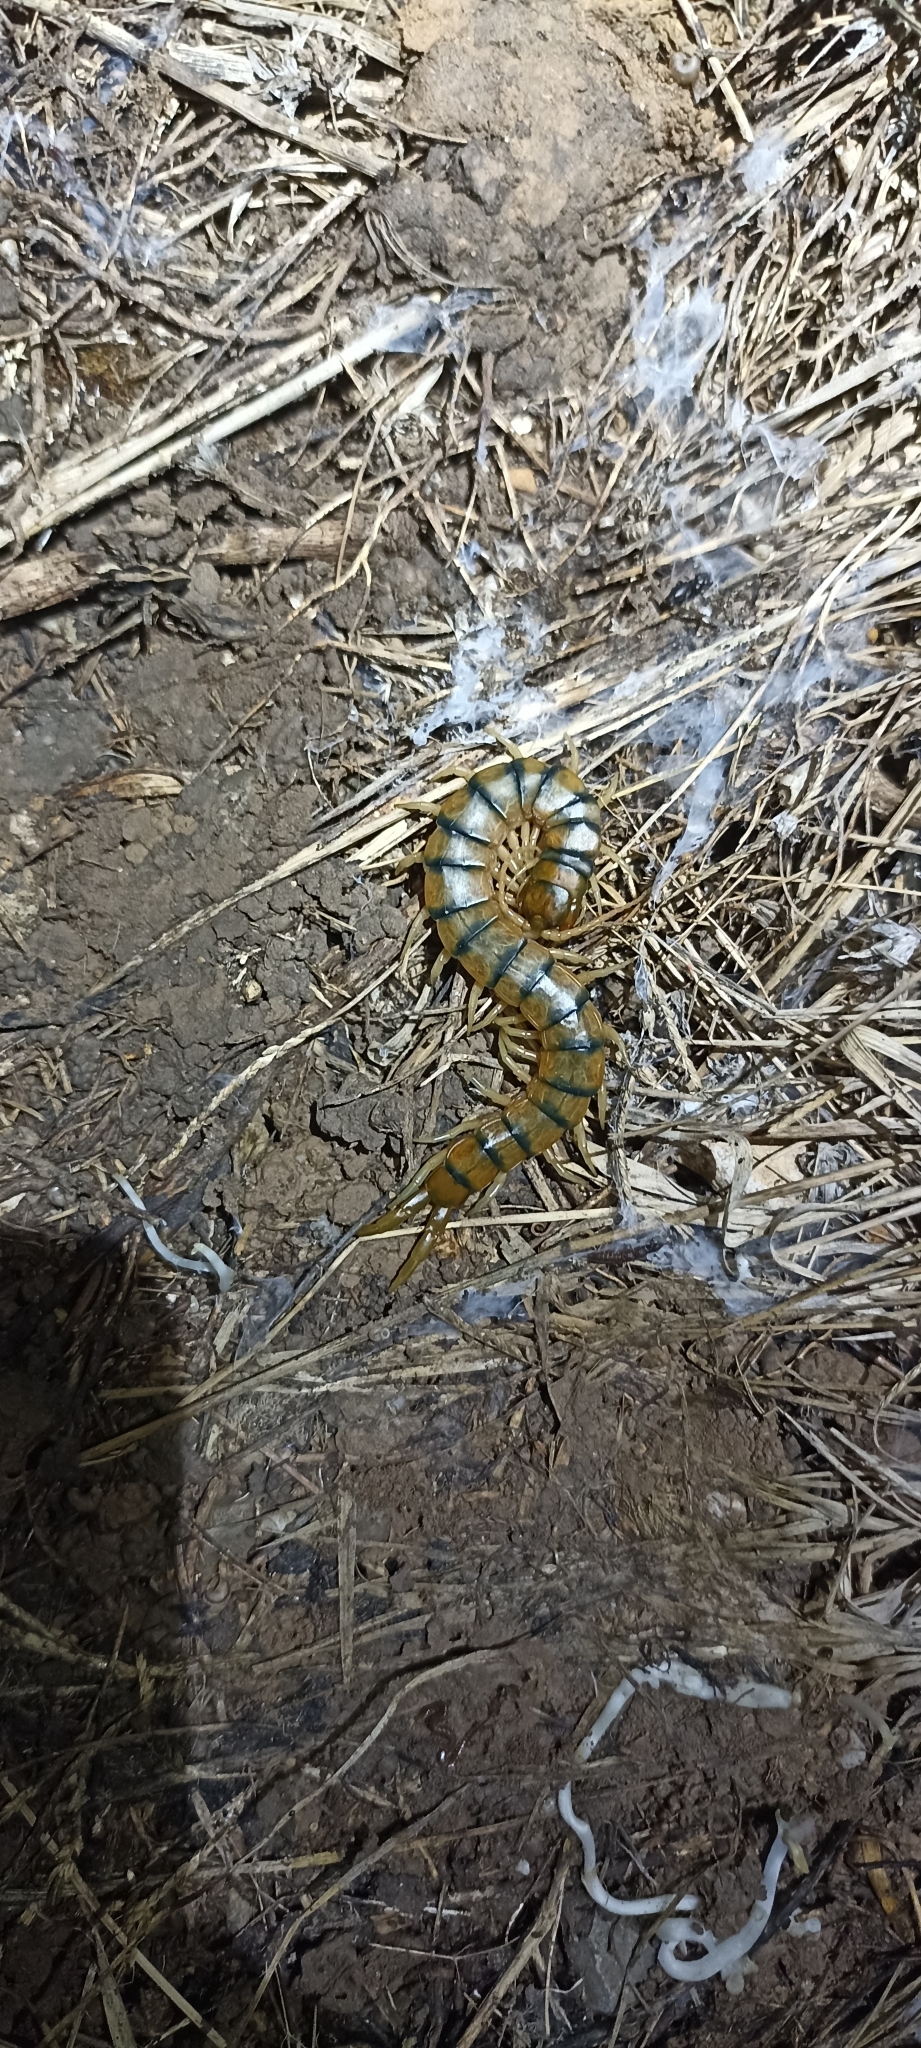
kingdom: Animalia
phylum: Arthropoda
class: Chilopoda
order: Scolopendromorpha
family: Scolopendridae
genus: Scolopendra
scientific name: Scolopendra cingulata
